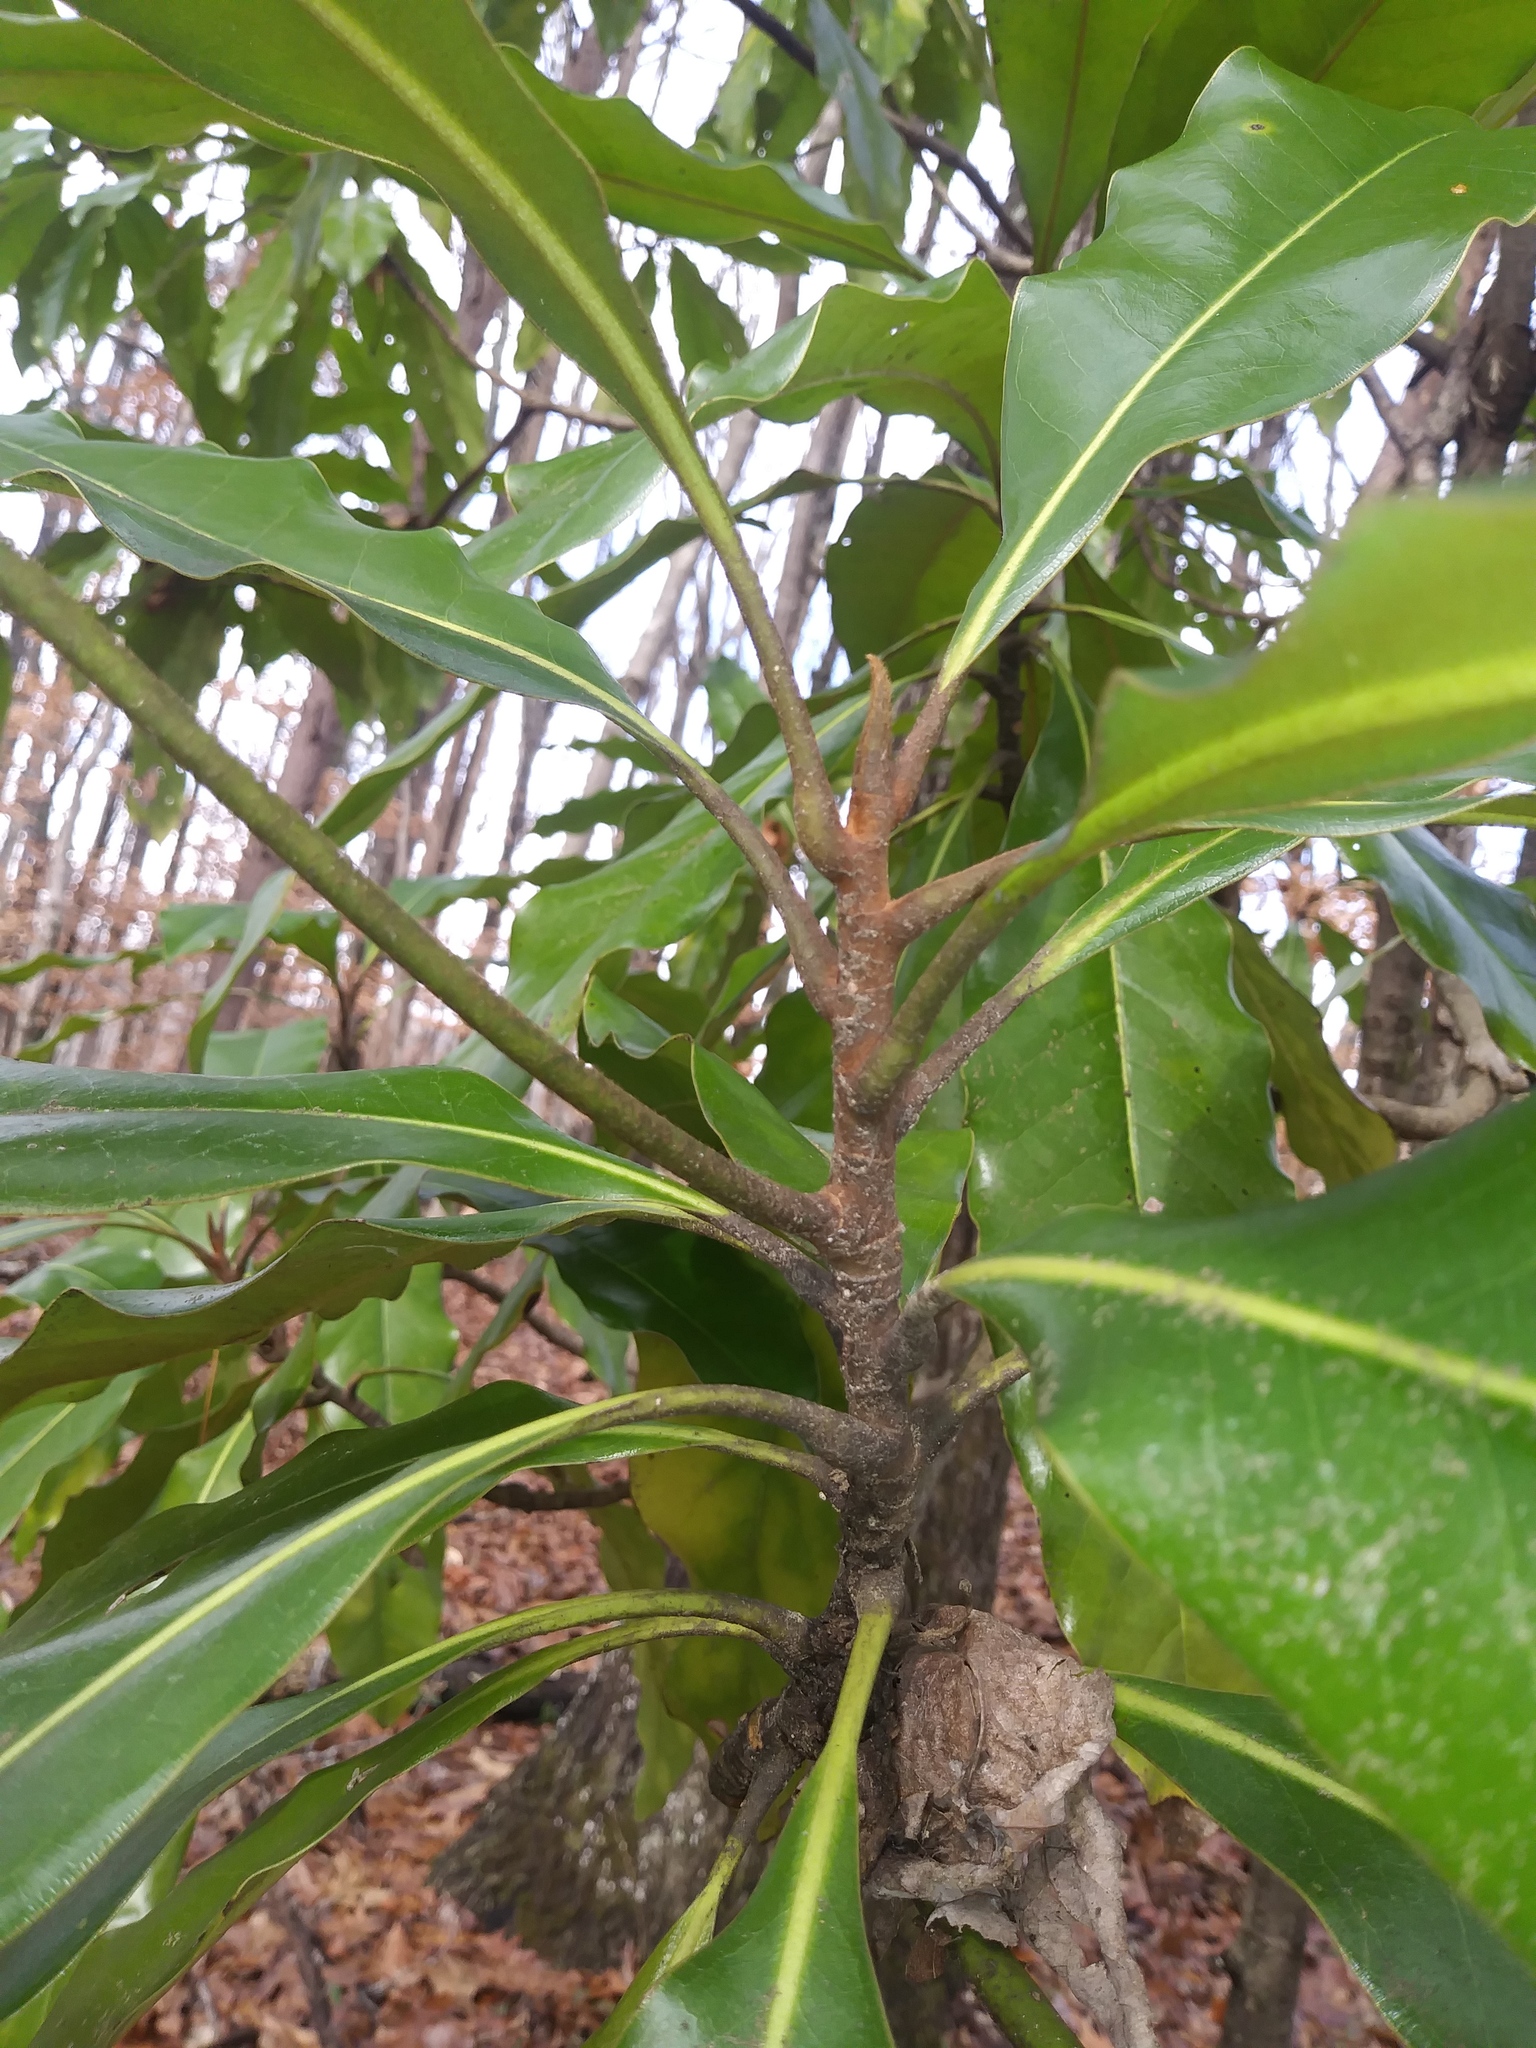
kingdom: Plantae
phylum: Tracheophyta
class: Magnoliopsida
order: Magnoliales
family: Magnoliaceae
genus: Magnolia
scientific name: Magnolia grandiflora
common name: Southern magnolia
